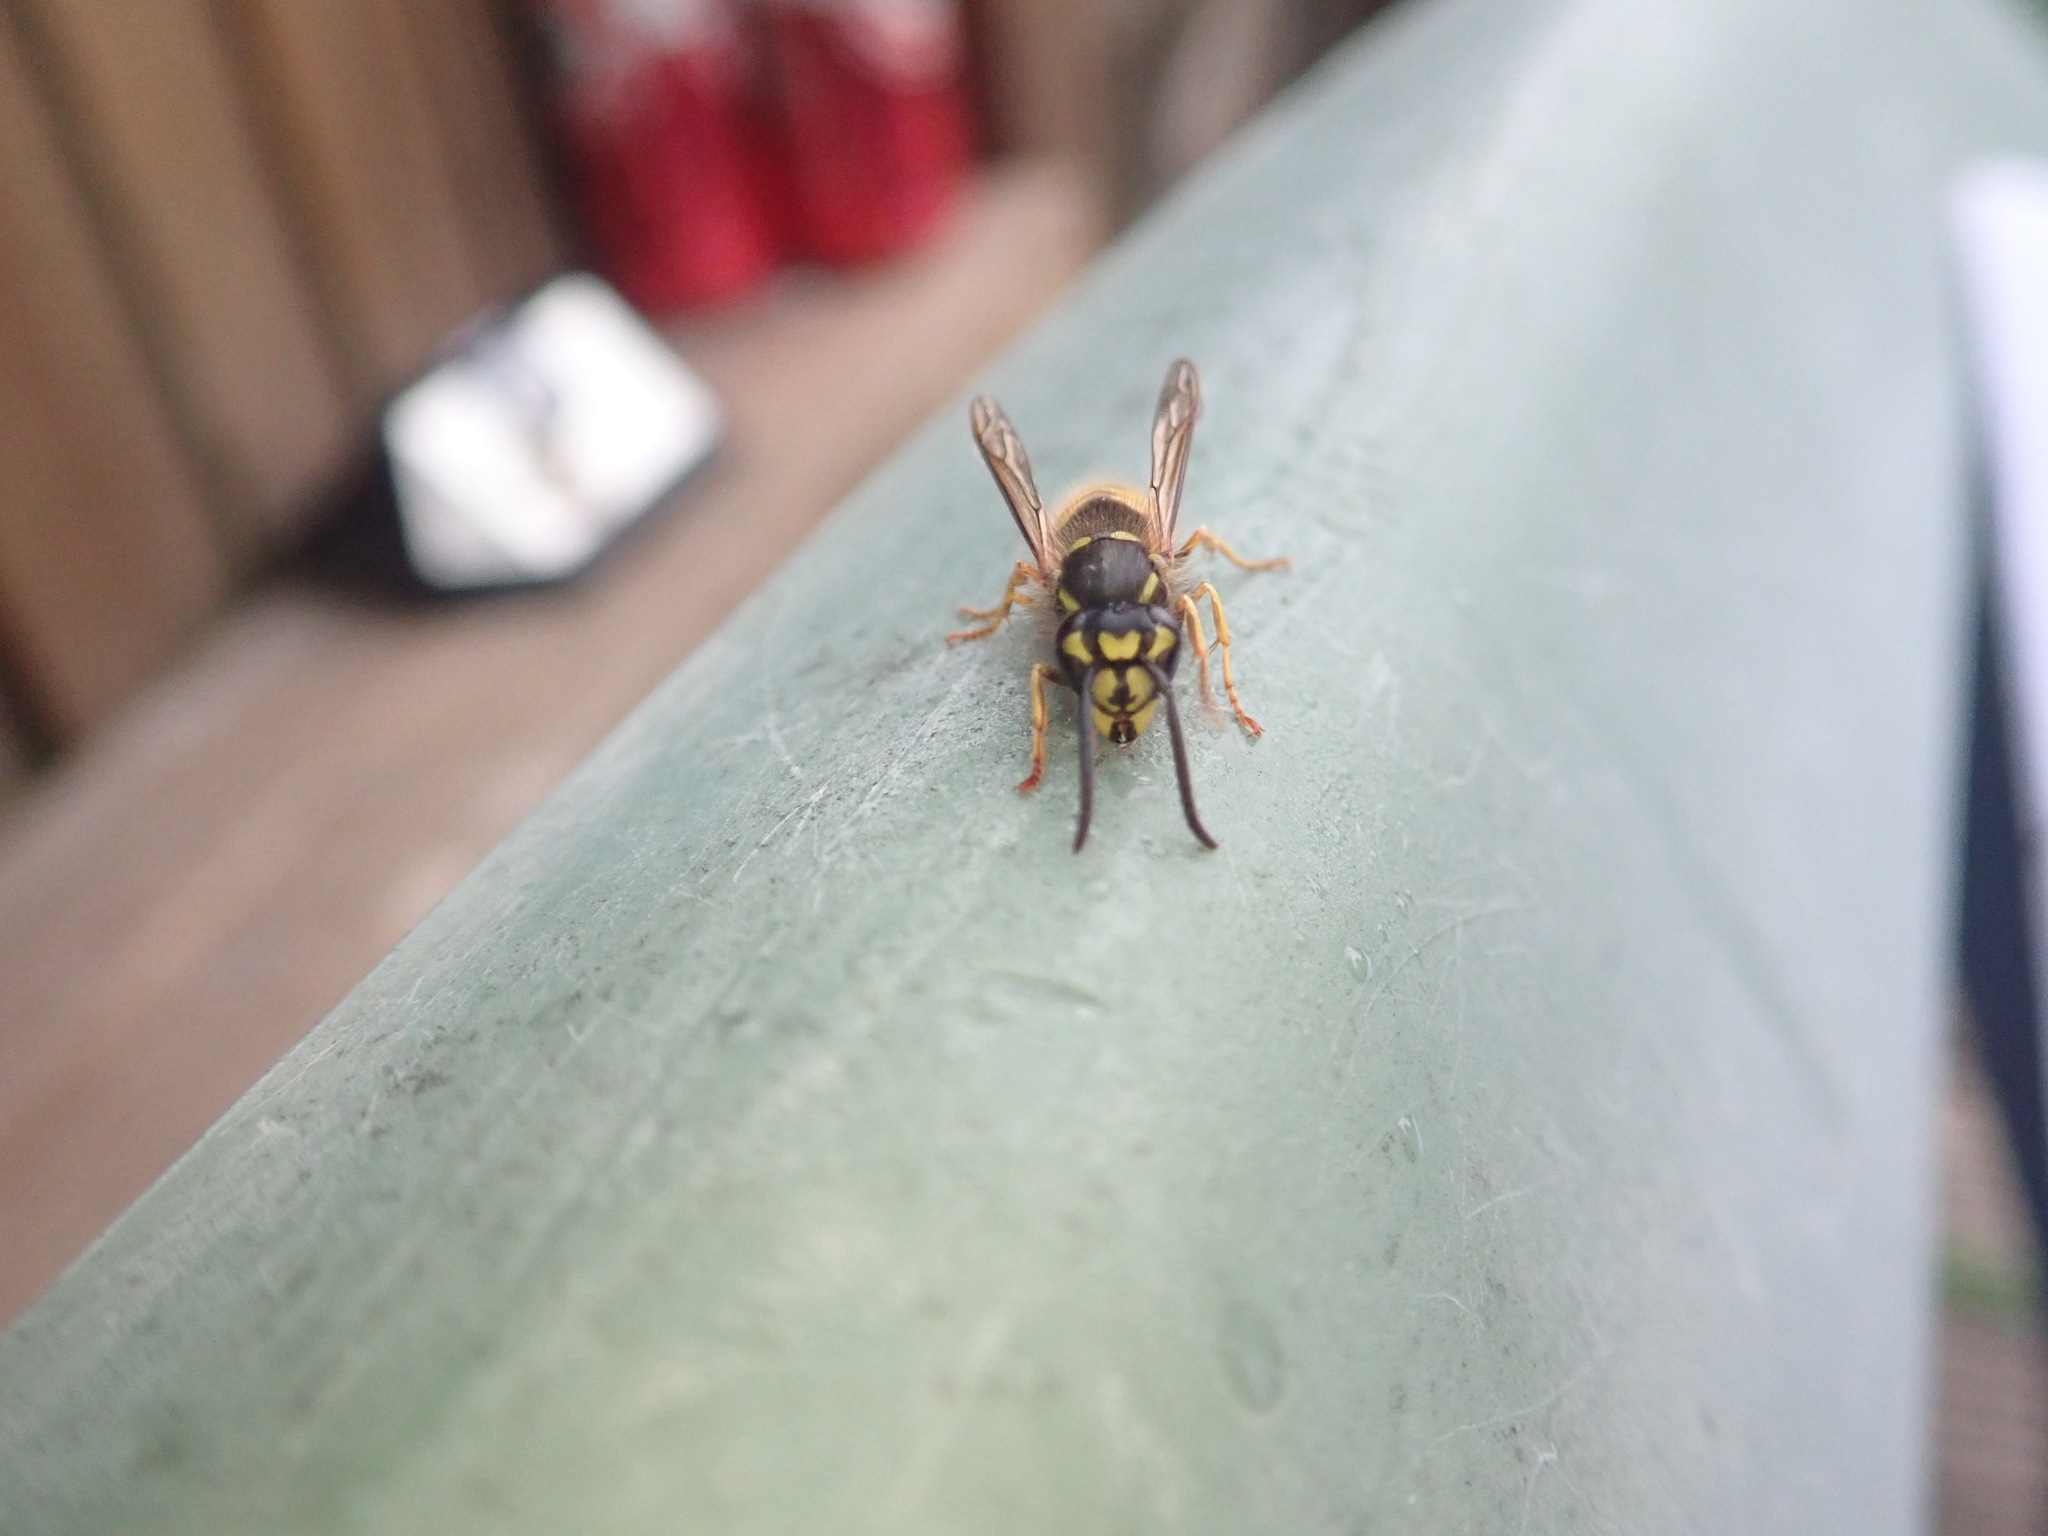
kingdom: Animalia
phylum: Arthropoda
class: Insecta
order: Hymenoptera
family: Vespidae
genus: Vespula
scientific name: Vespula vulgaris
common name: Common wasp
